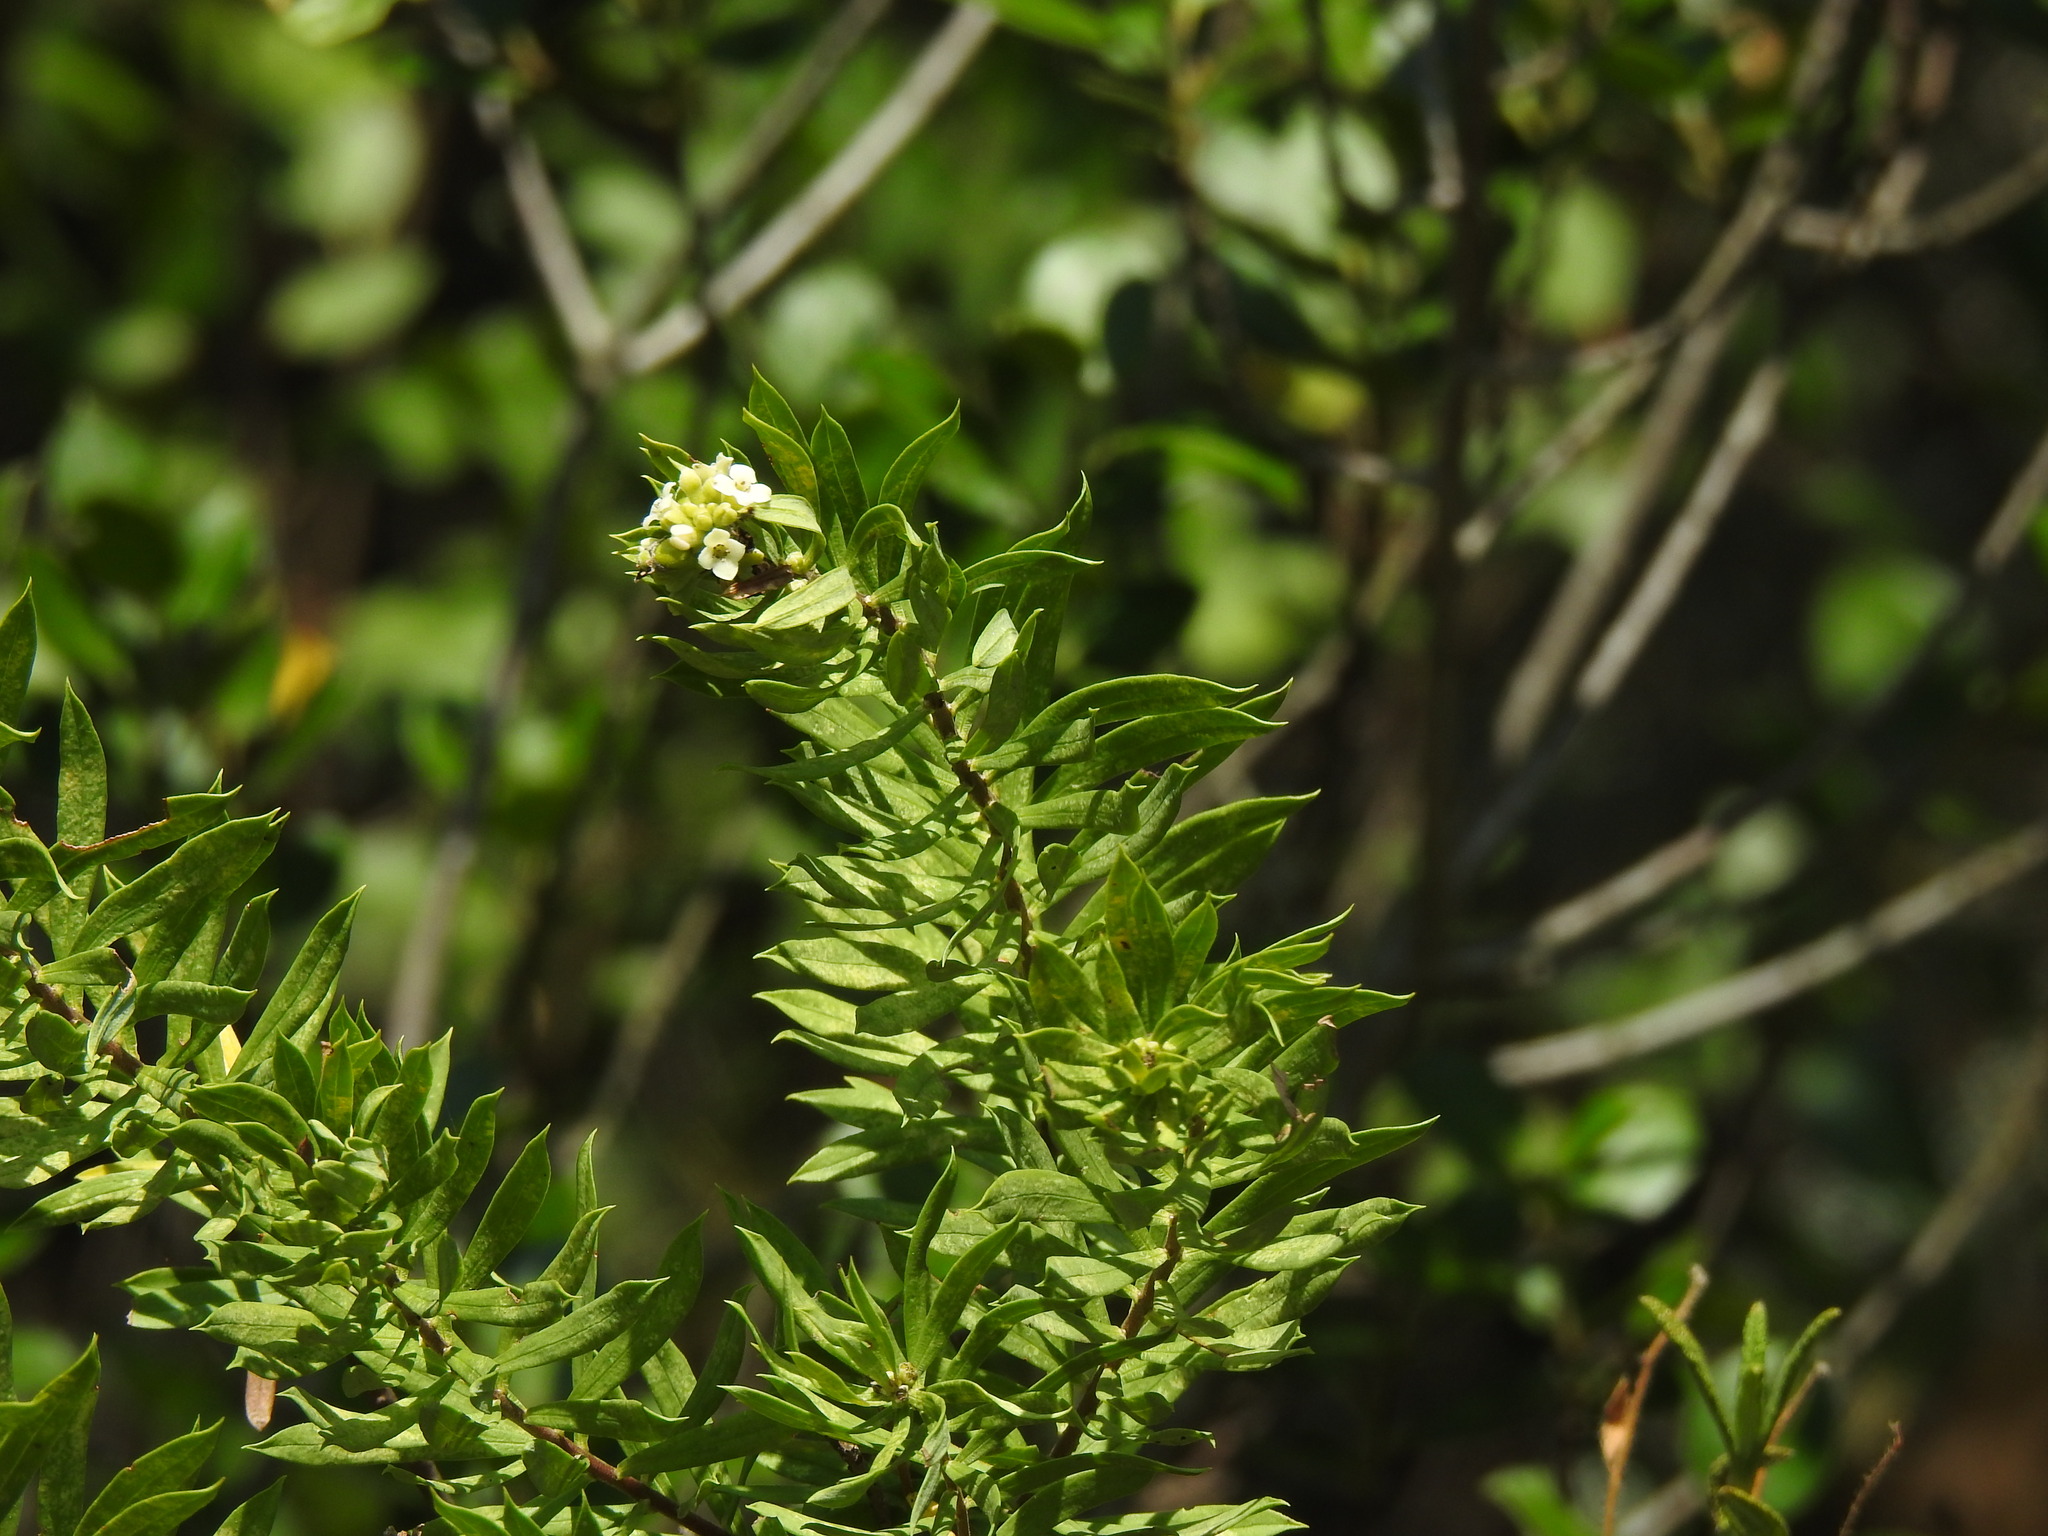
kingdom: Plantae
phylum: Tracheophyta
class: Magnoliopsida
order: Malvales
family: Thymelaeaceae
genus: Daphne
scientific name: Daphne gnidium
